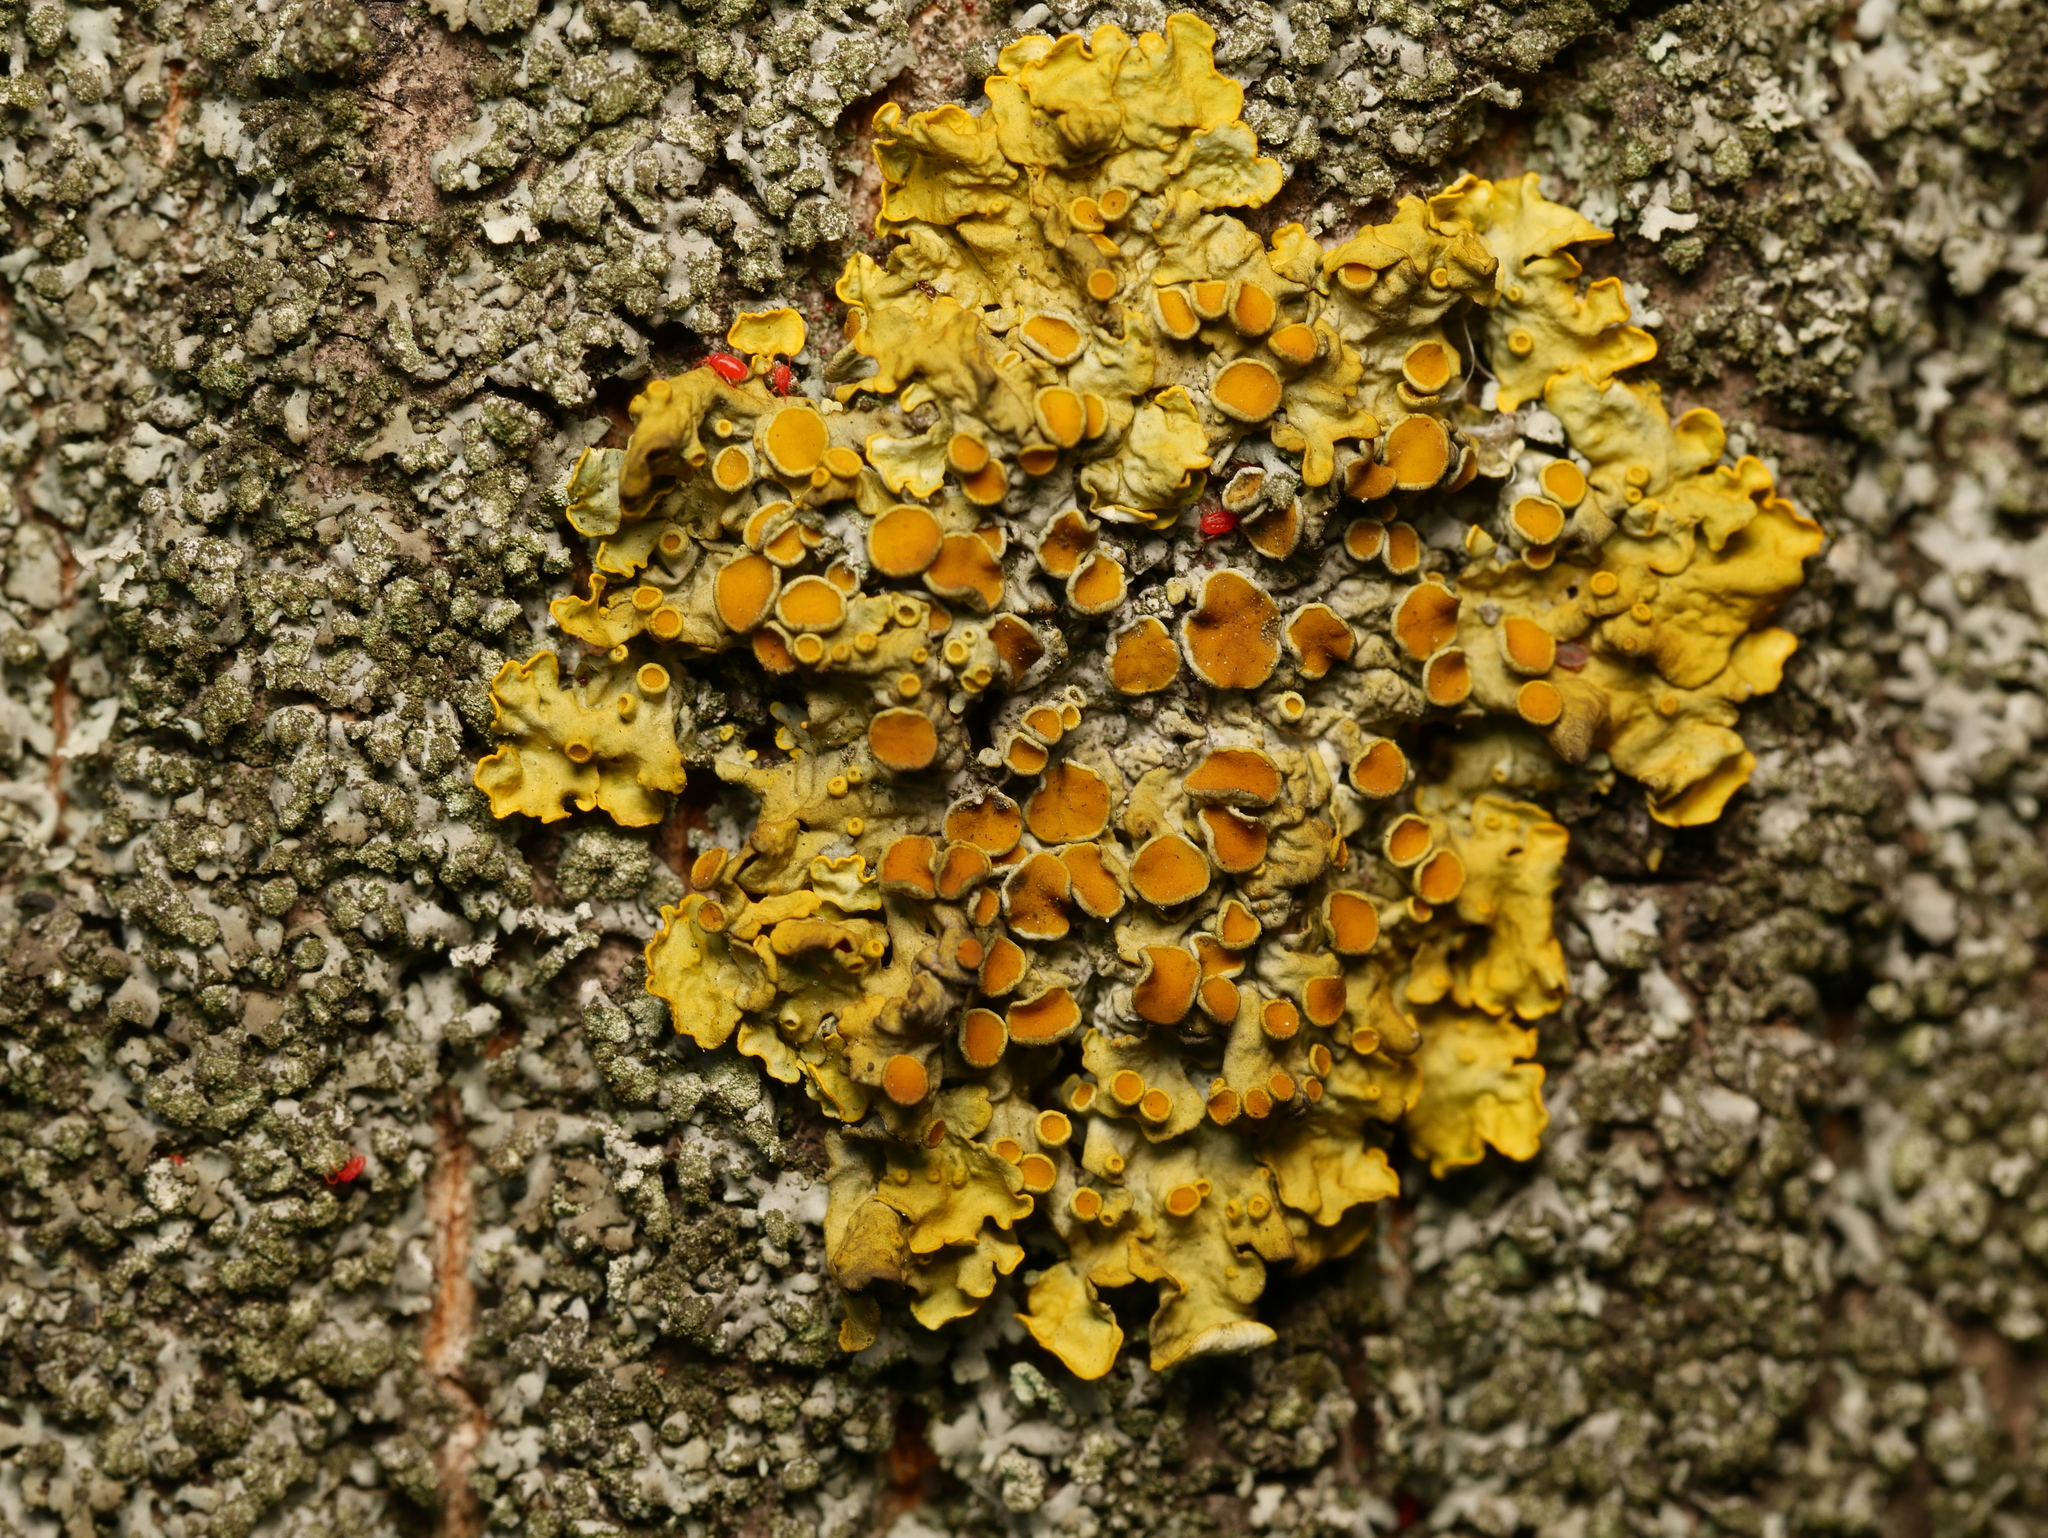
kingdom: Fungi
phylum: Ascomycota
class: Lecanoromycetes
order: Teloschistales
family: Teloschistaceae
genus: Xanthoria
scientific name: Xanthoria parietina
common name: Common orange lichen
